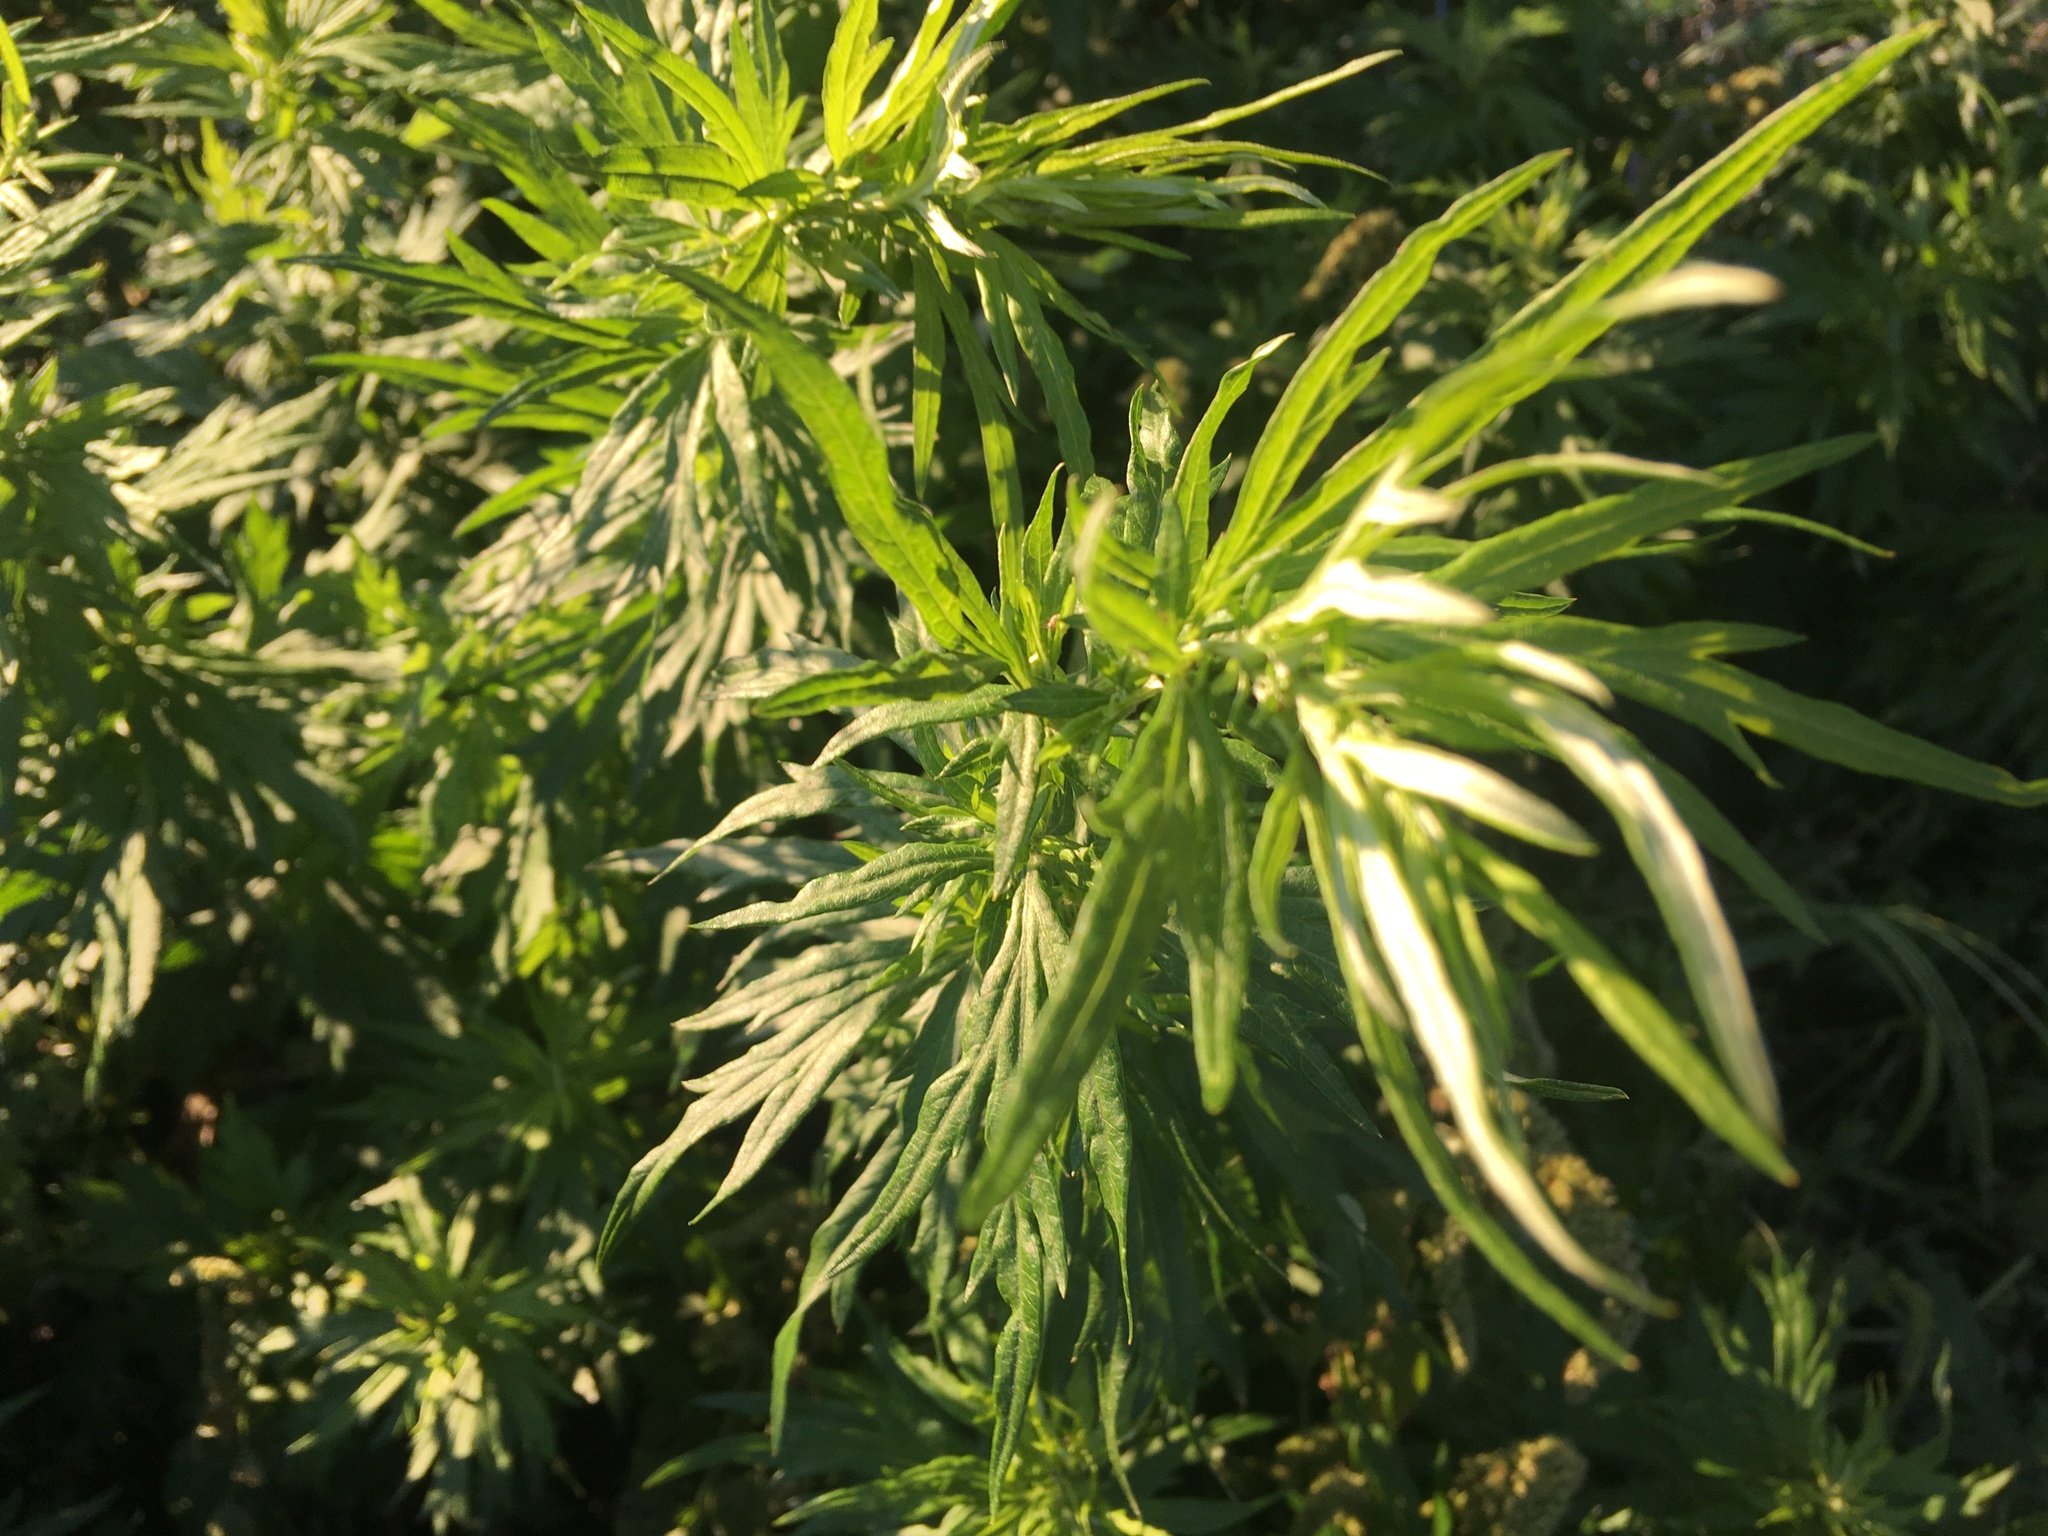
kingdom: Plantae
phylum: Tracheophyta
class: Magnoliopsida
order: Asterales
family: Asteraceae
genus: Artemisia
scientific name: Artemisia vulgaris
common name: Mugwort
